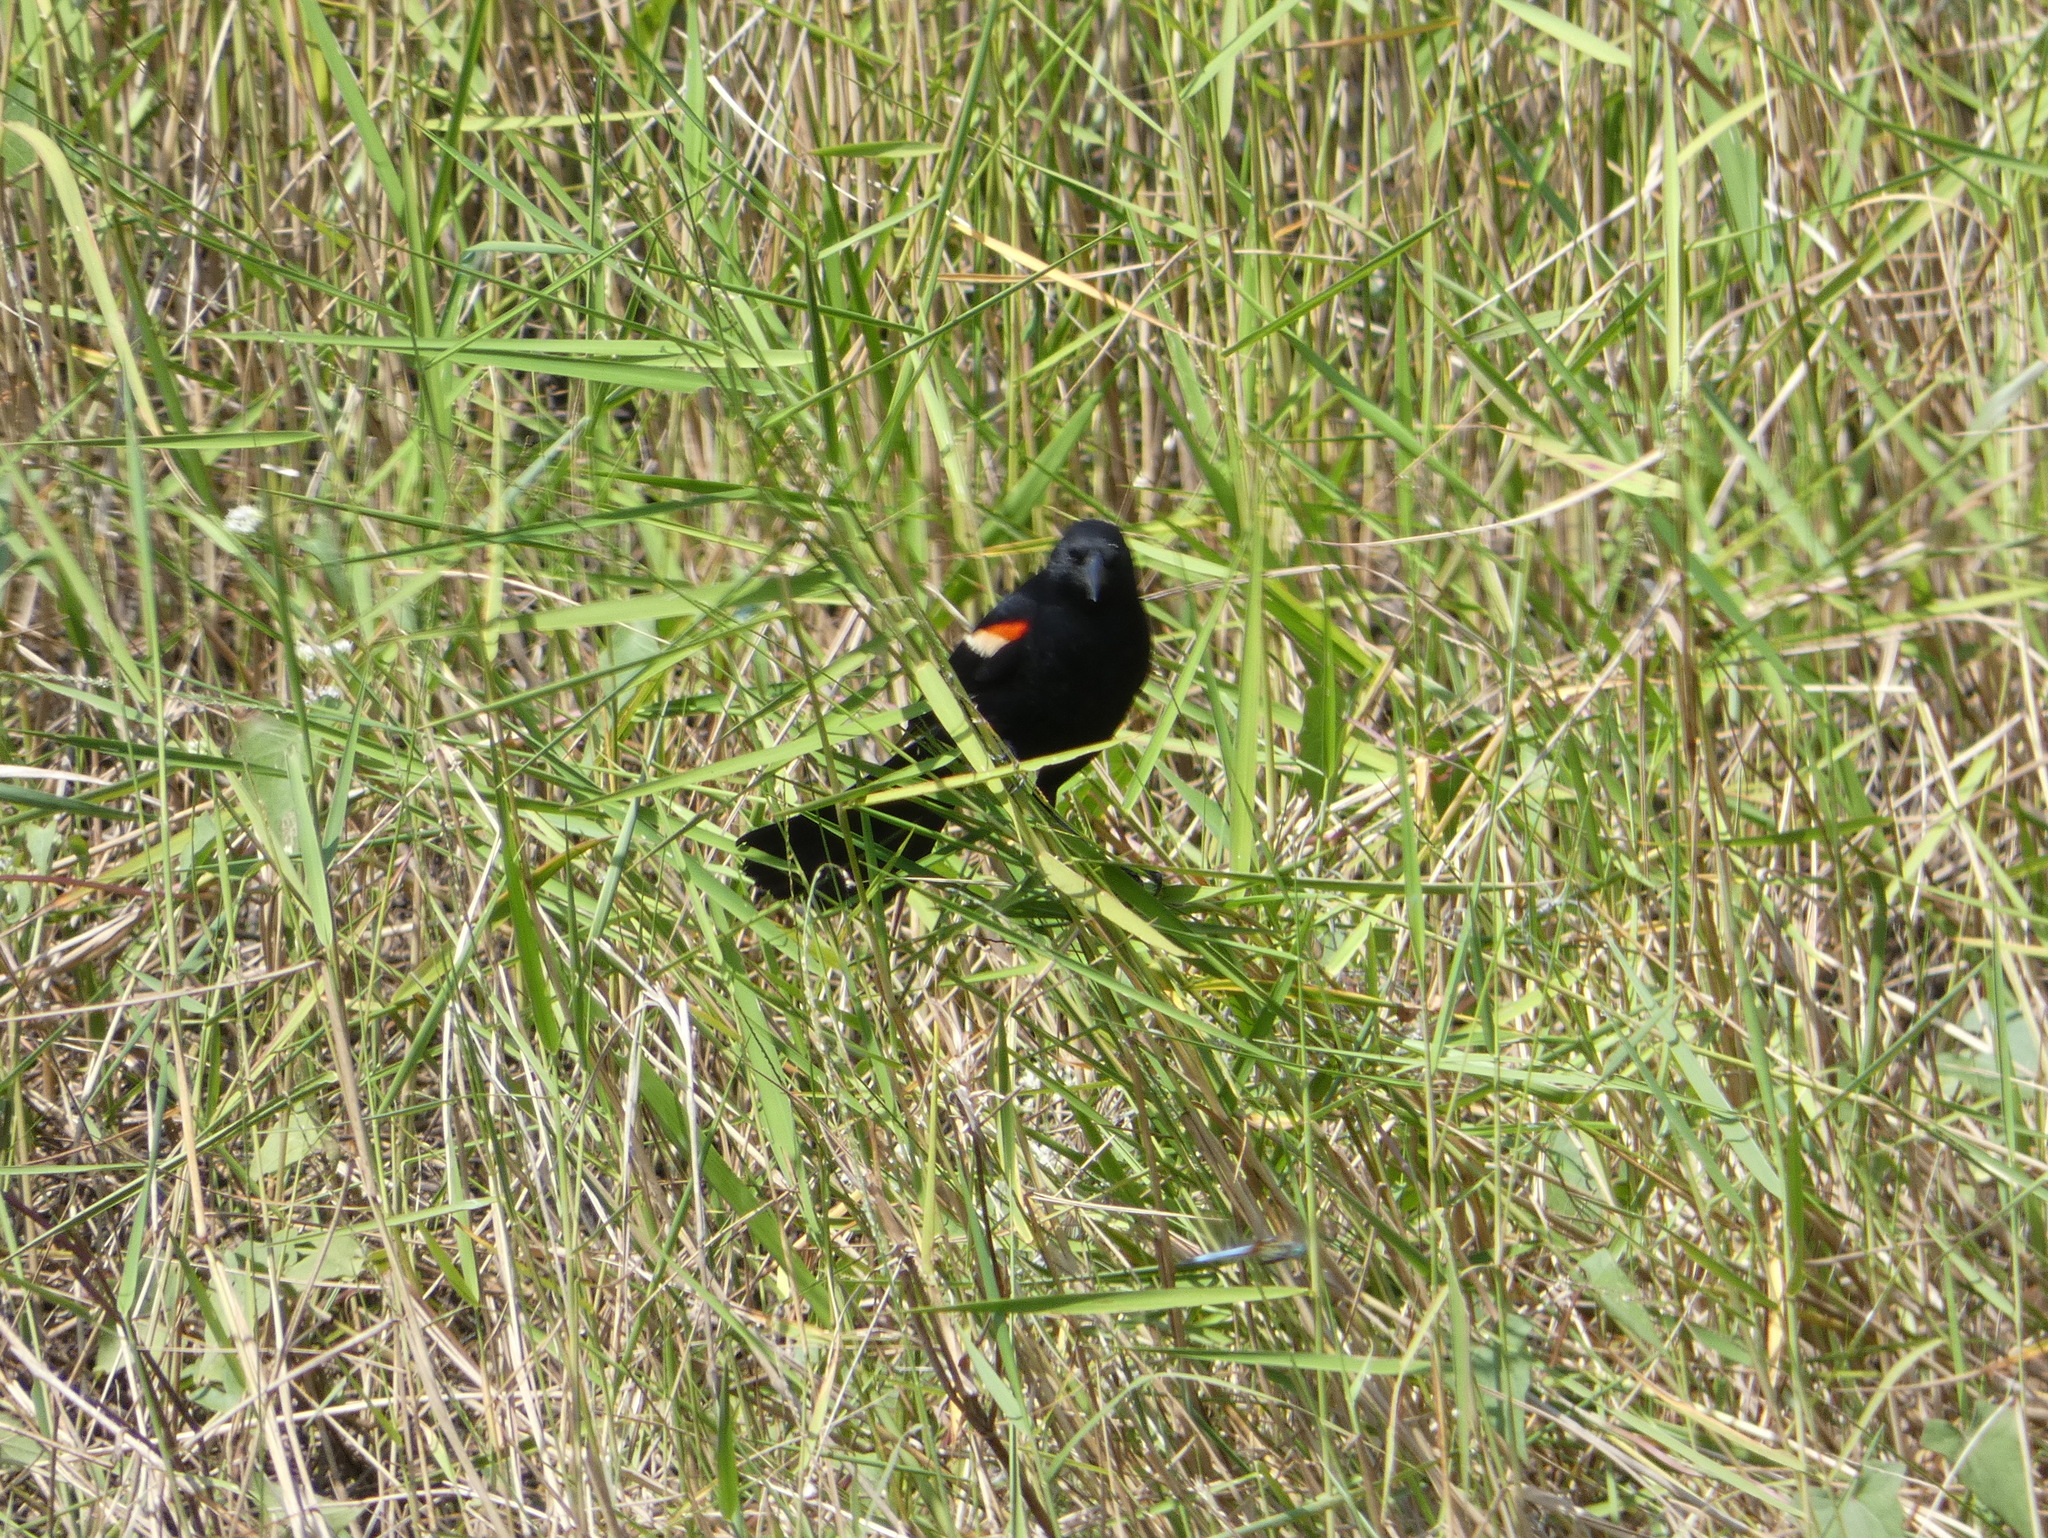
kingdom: Animalia
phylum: Chordata
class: Aves
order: Passeriformes
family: Icteridae
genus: Agelaius
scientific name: Agelaius phoeniceus
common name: Red-winged blackbird
